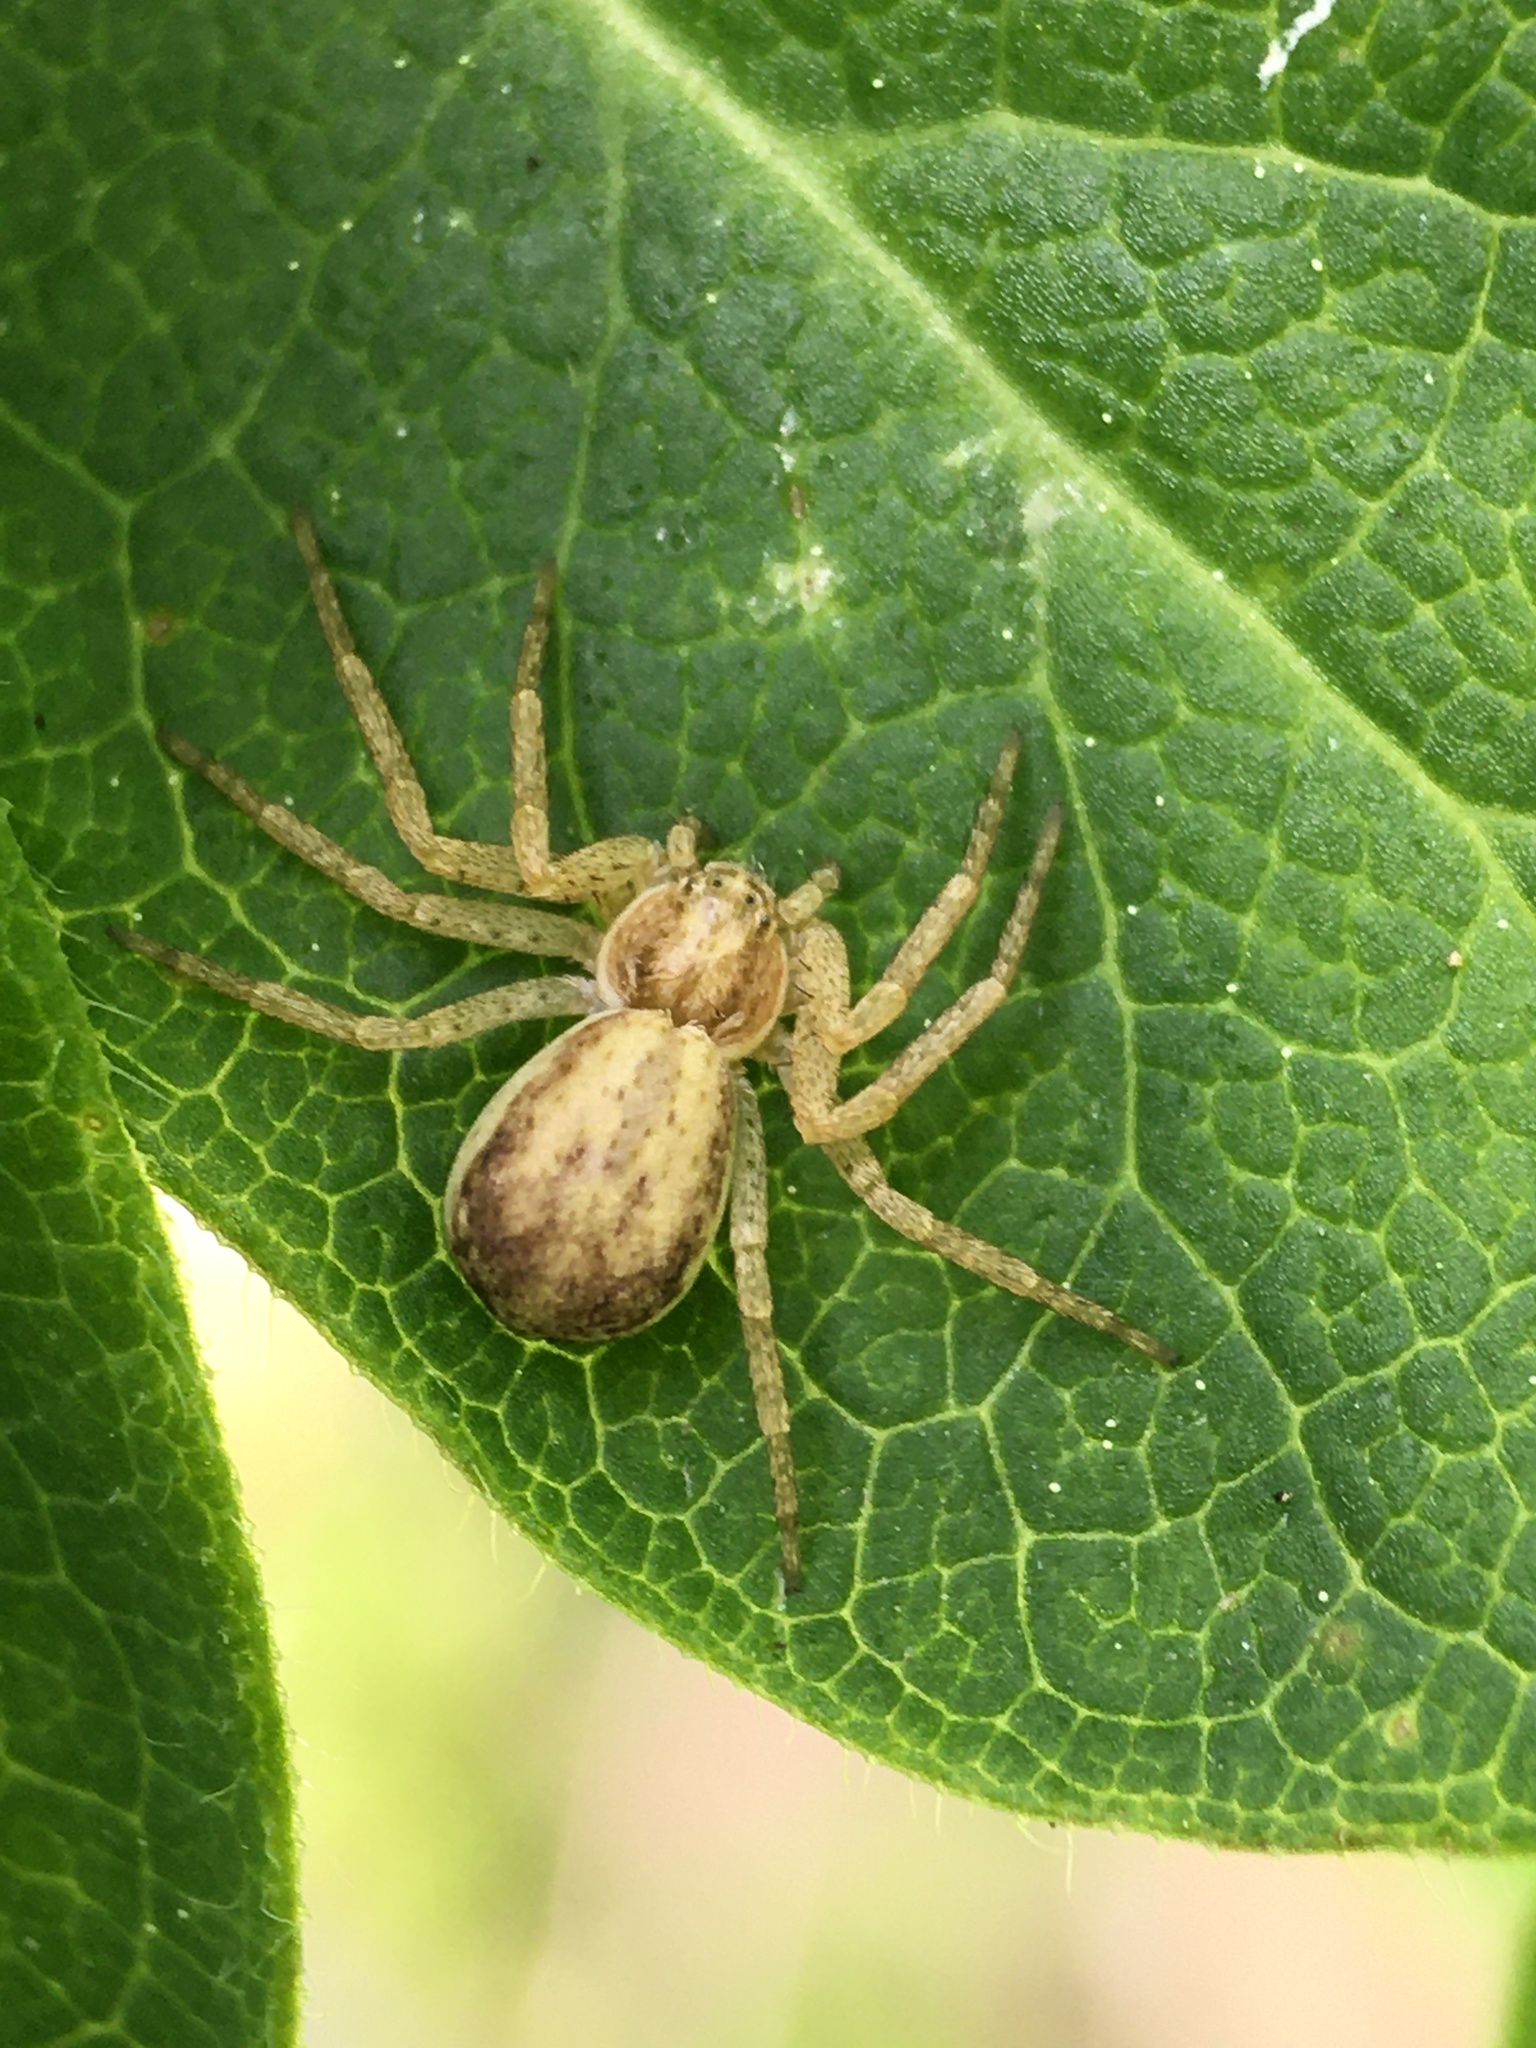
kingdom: Animalia
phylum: Arthropoda
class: Arachnida
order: Araneae
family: Philodromidae
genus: Philodromus
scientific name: Philodromus dispar
